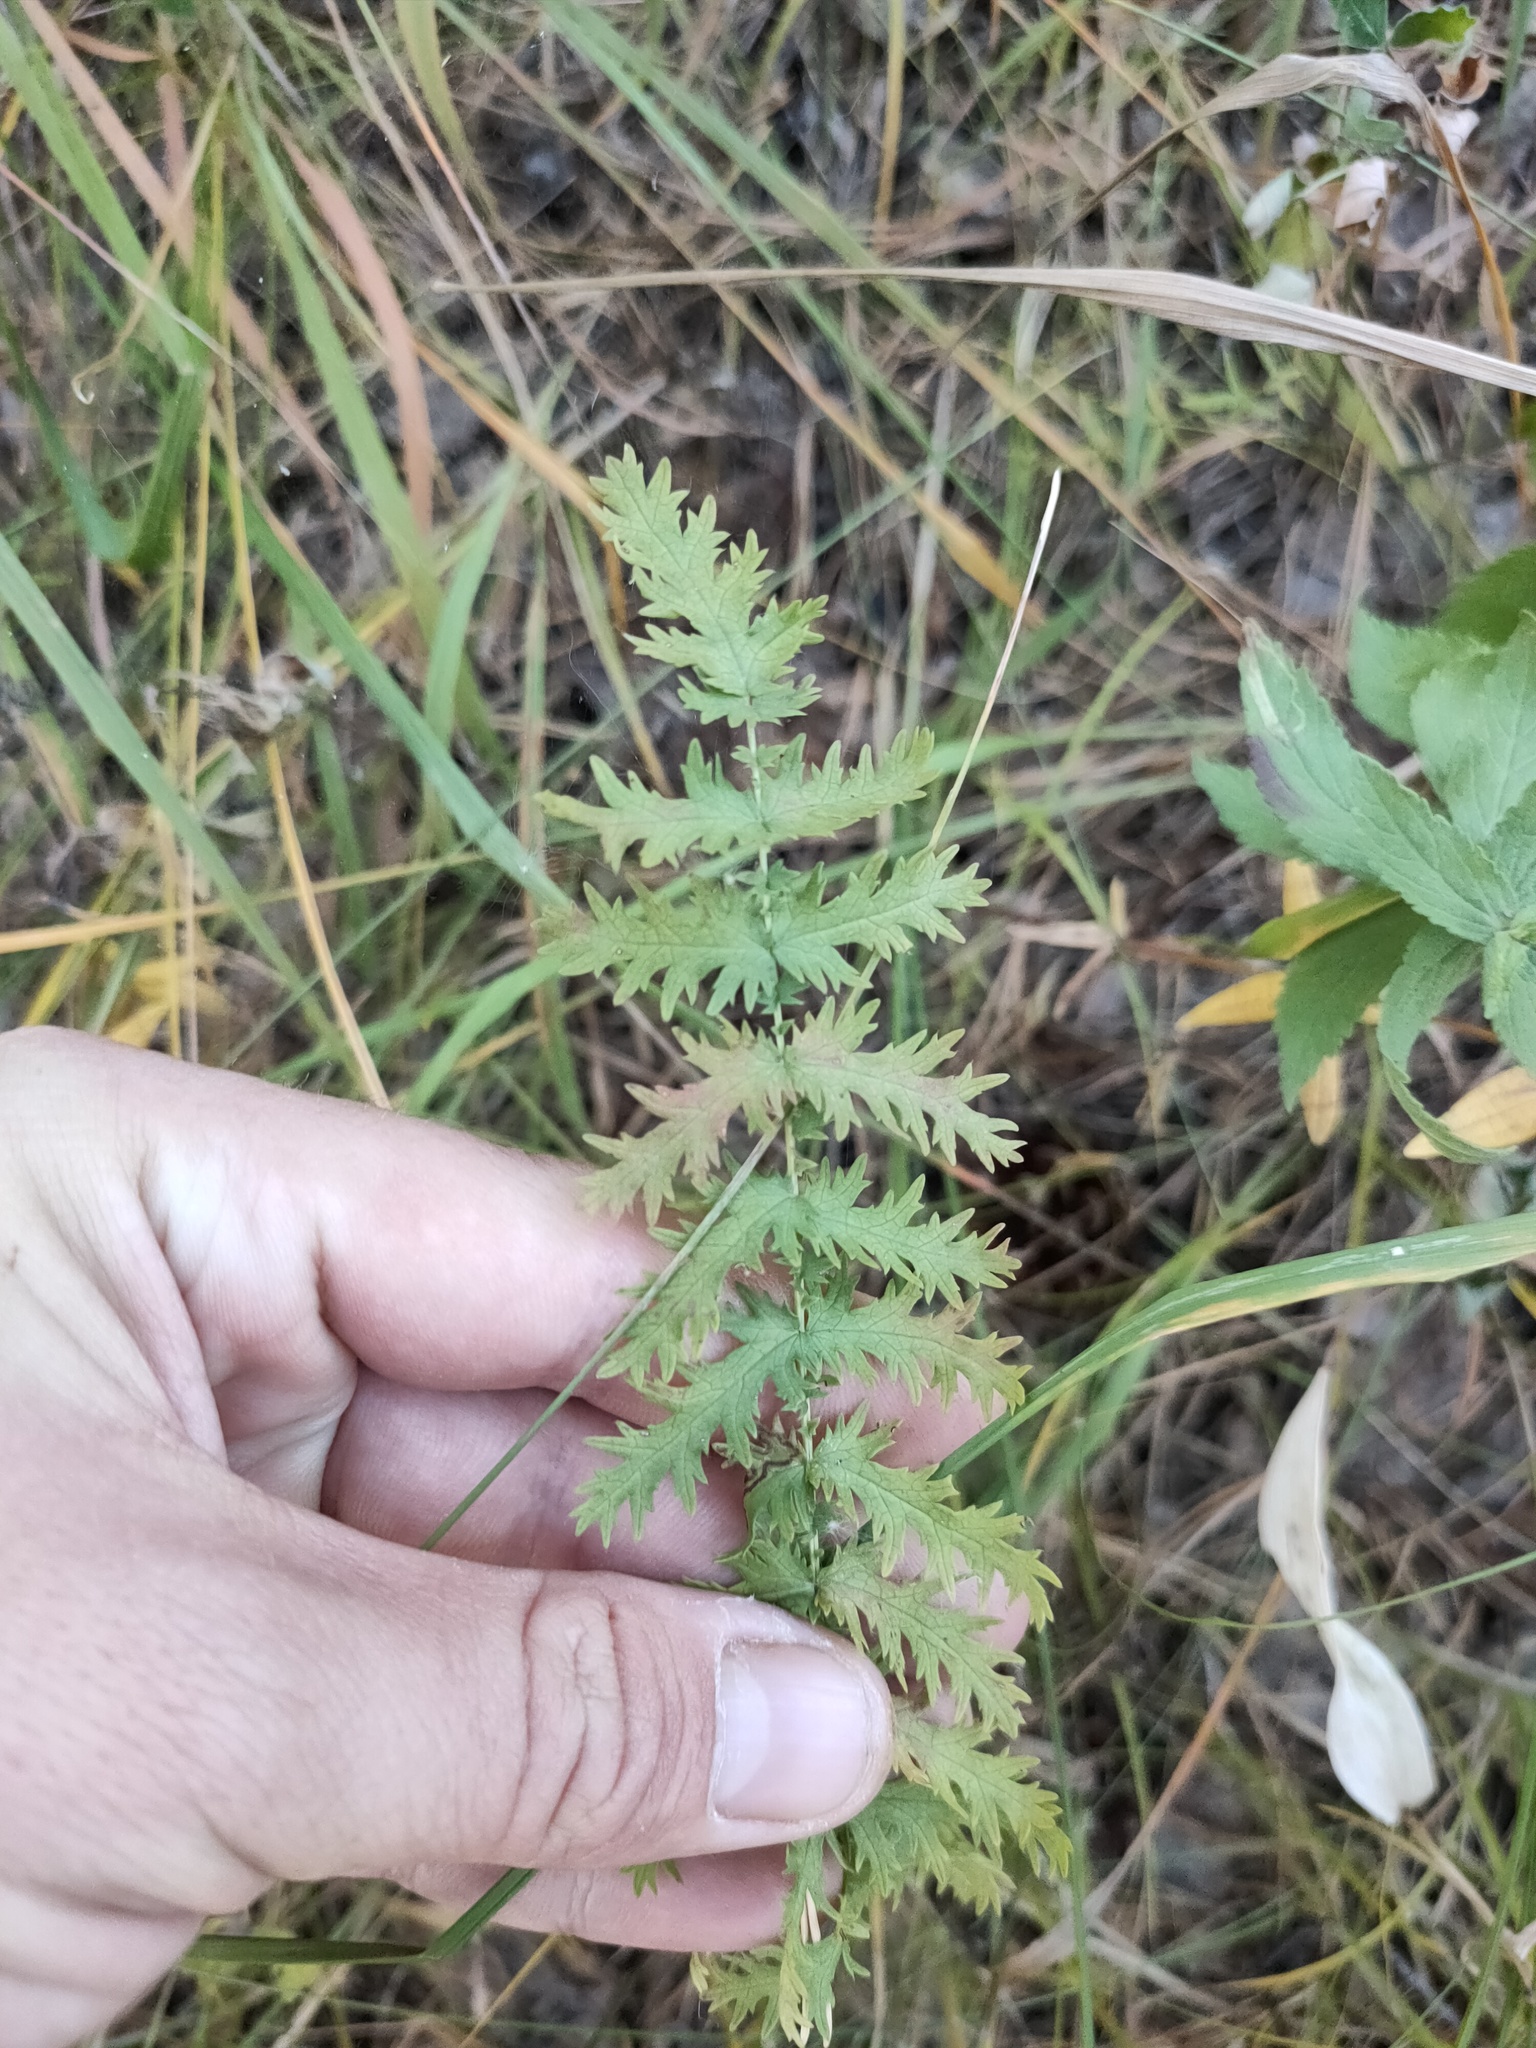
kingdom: Plantae
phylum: Tracheophyta
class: Magnoliopsida
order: Rosales
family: Rosaceae
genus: Filipendula
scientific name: Filipendula vulgaris
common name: Dropwort
